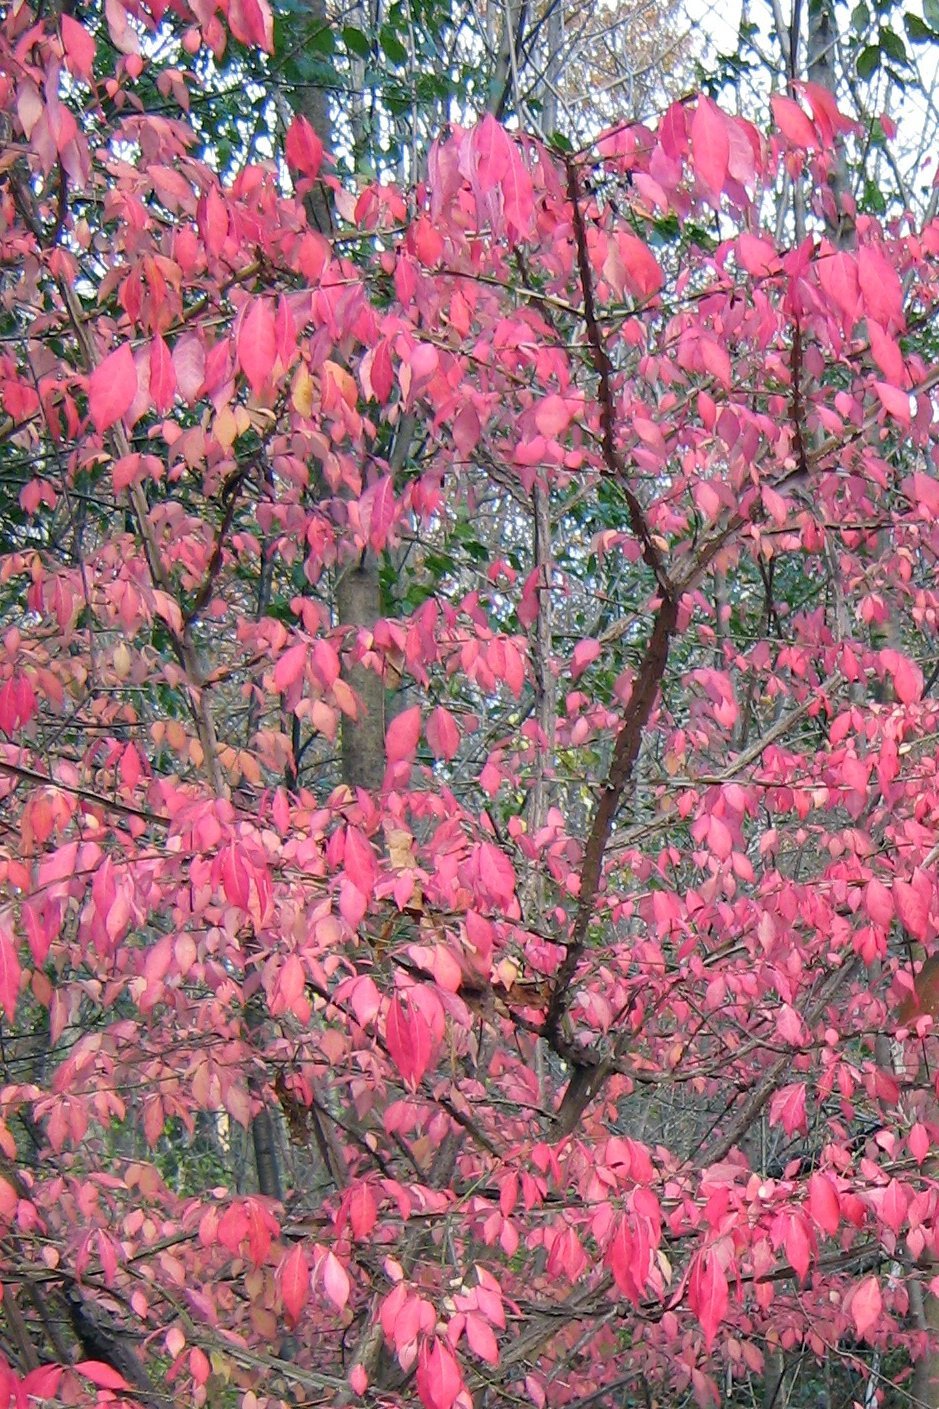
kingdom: Plantae
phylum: Tracheophyta
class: Magnoliopsida
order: Celastrales
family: Celastraceae
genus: Euonymus
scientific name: Euonymus alatus
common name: Winged euonymus
